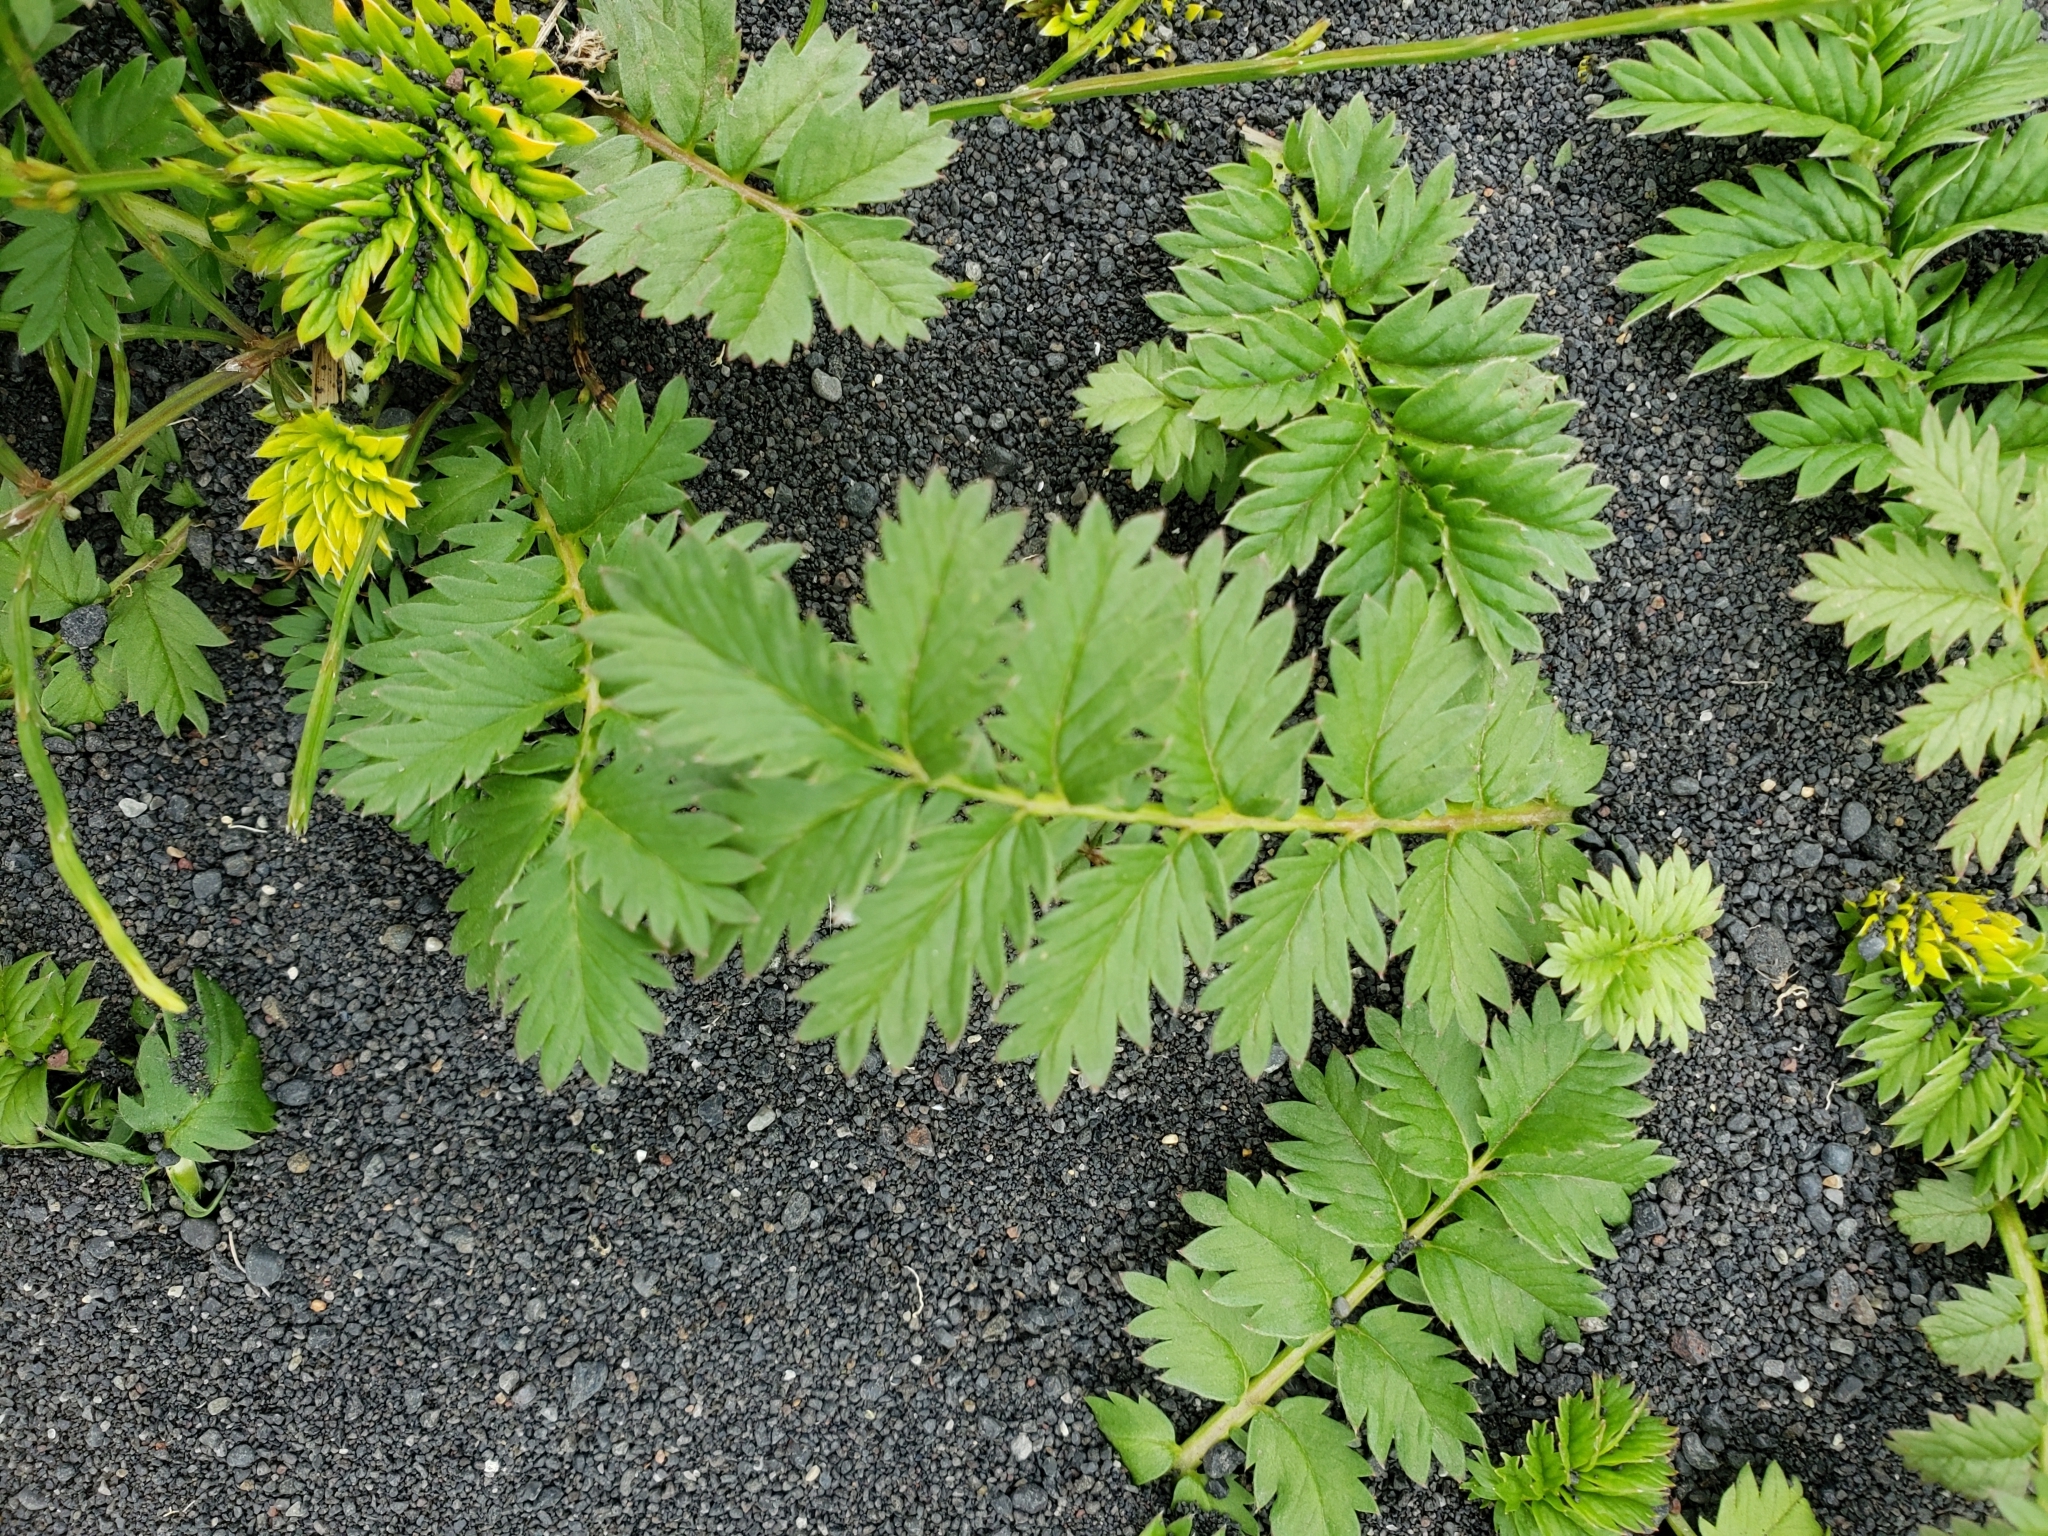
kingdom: Plantae
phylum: Tracheophyta
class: Magnoliopsida
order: Rosales
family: Rosaceae
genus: Argentina
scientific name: Argentina anserina
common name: Common silverweed
